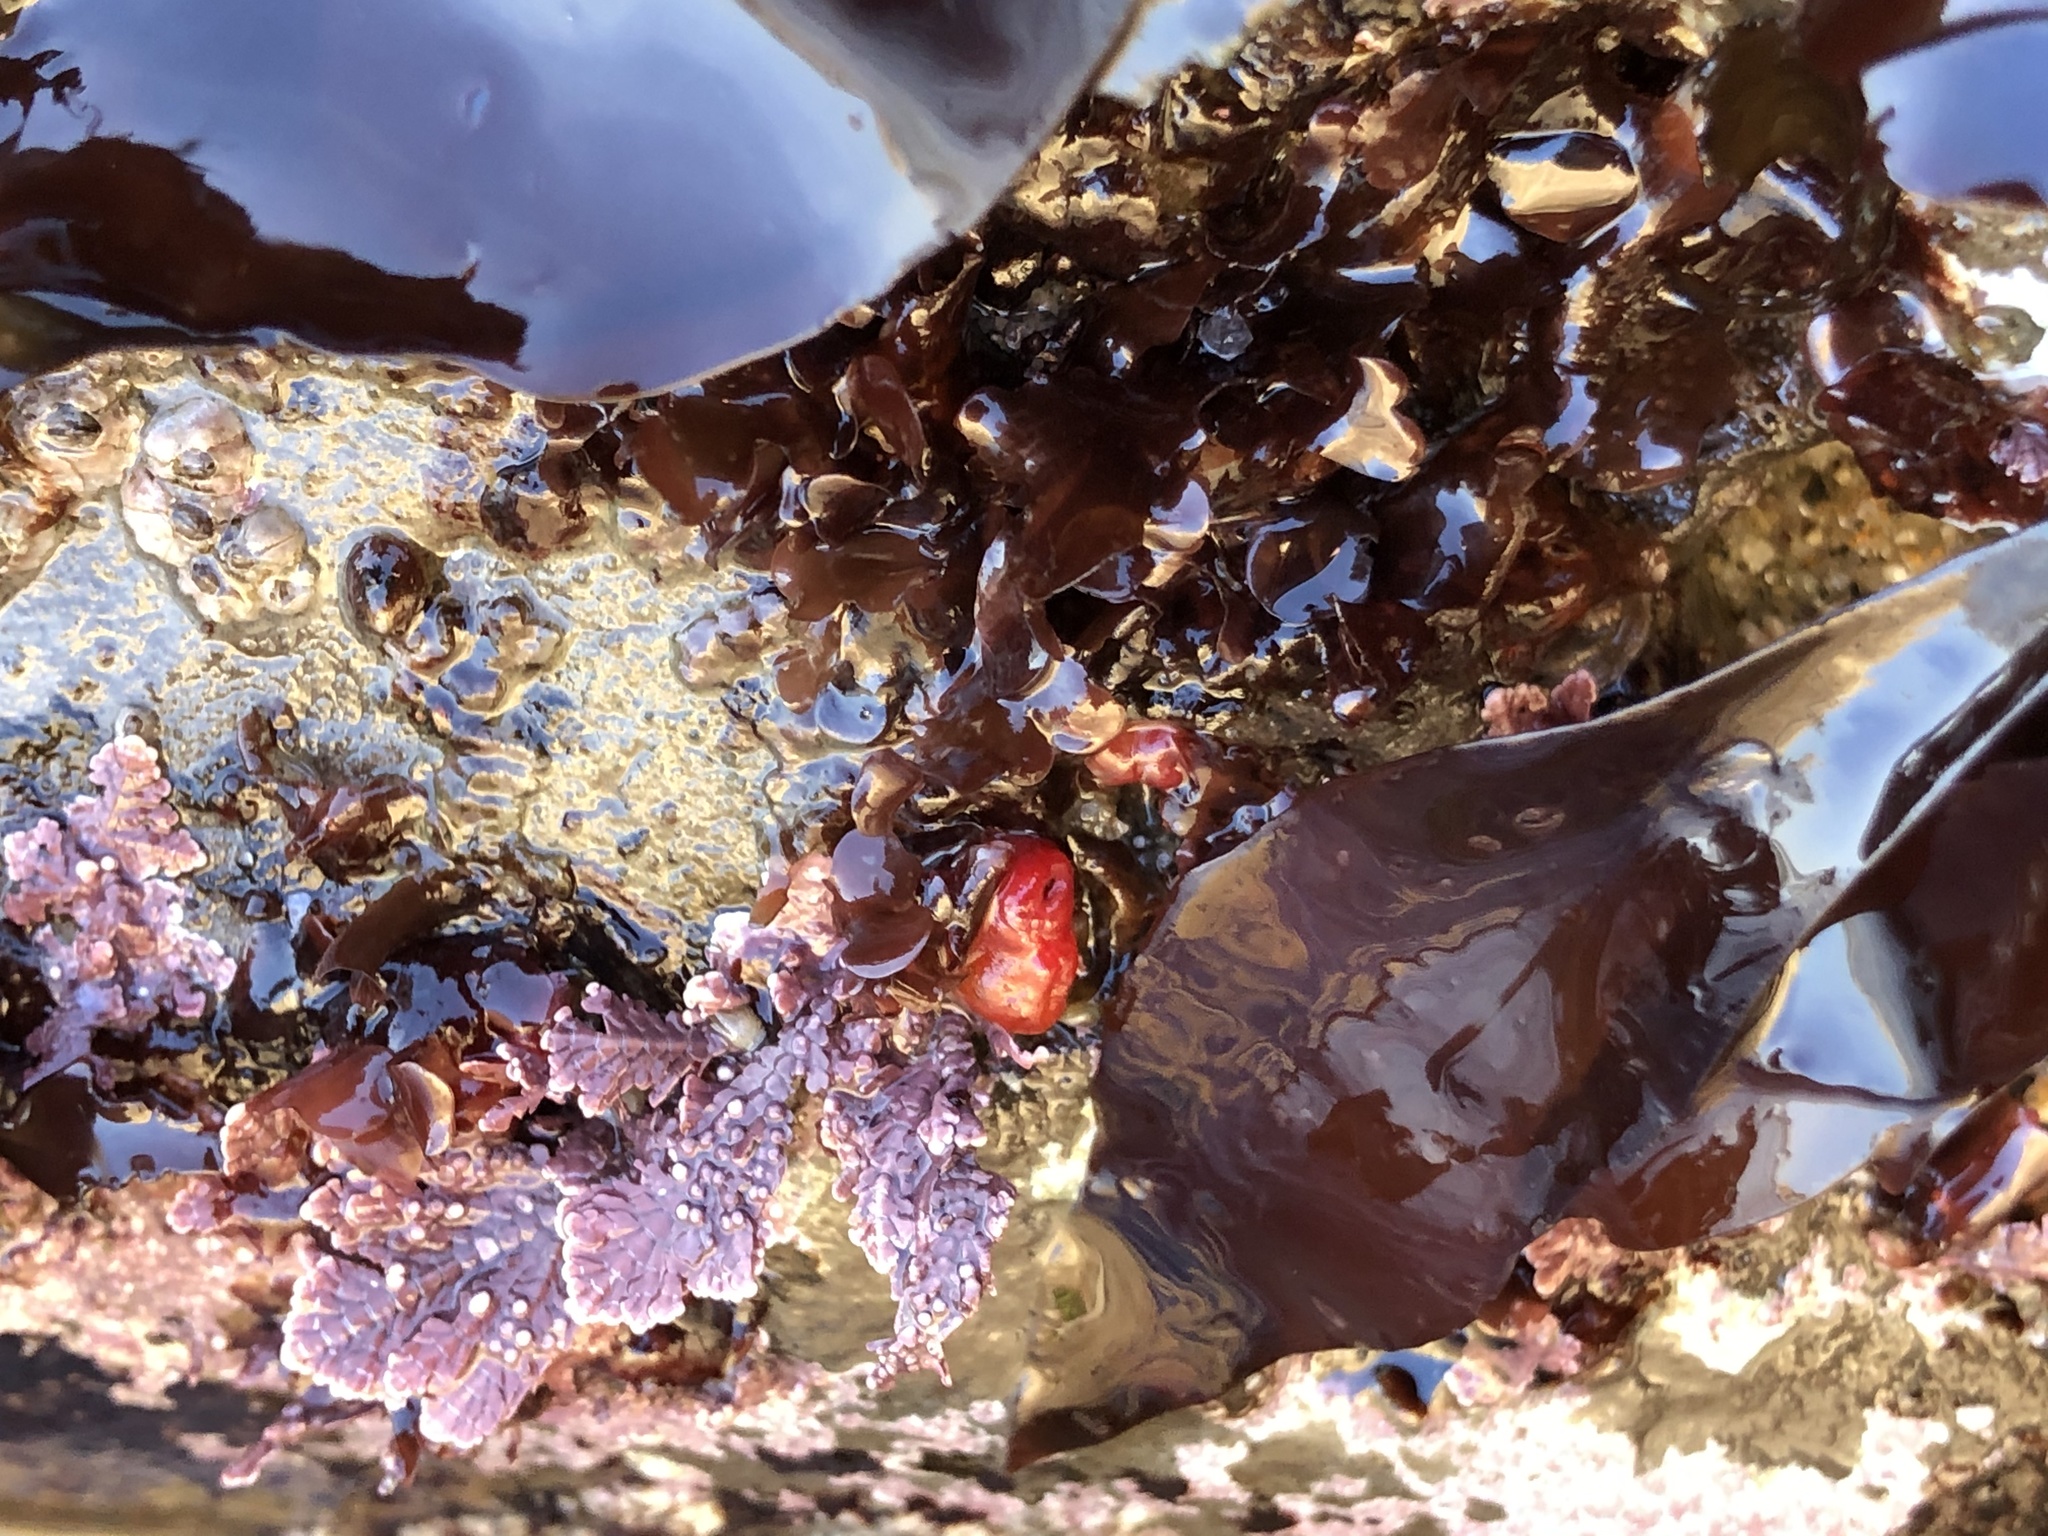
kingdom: Animalia
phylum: Mollusca
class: Bivalvia
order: Adapedonta
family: Hiatellidae
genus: Hiatella
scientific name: Hiatella arctica
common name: Arctic hiatella
